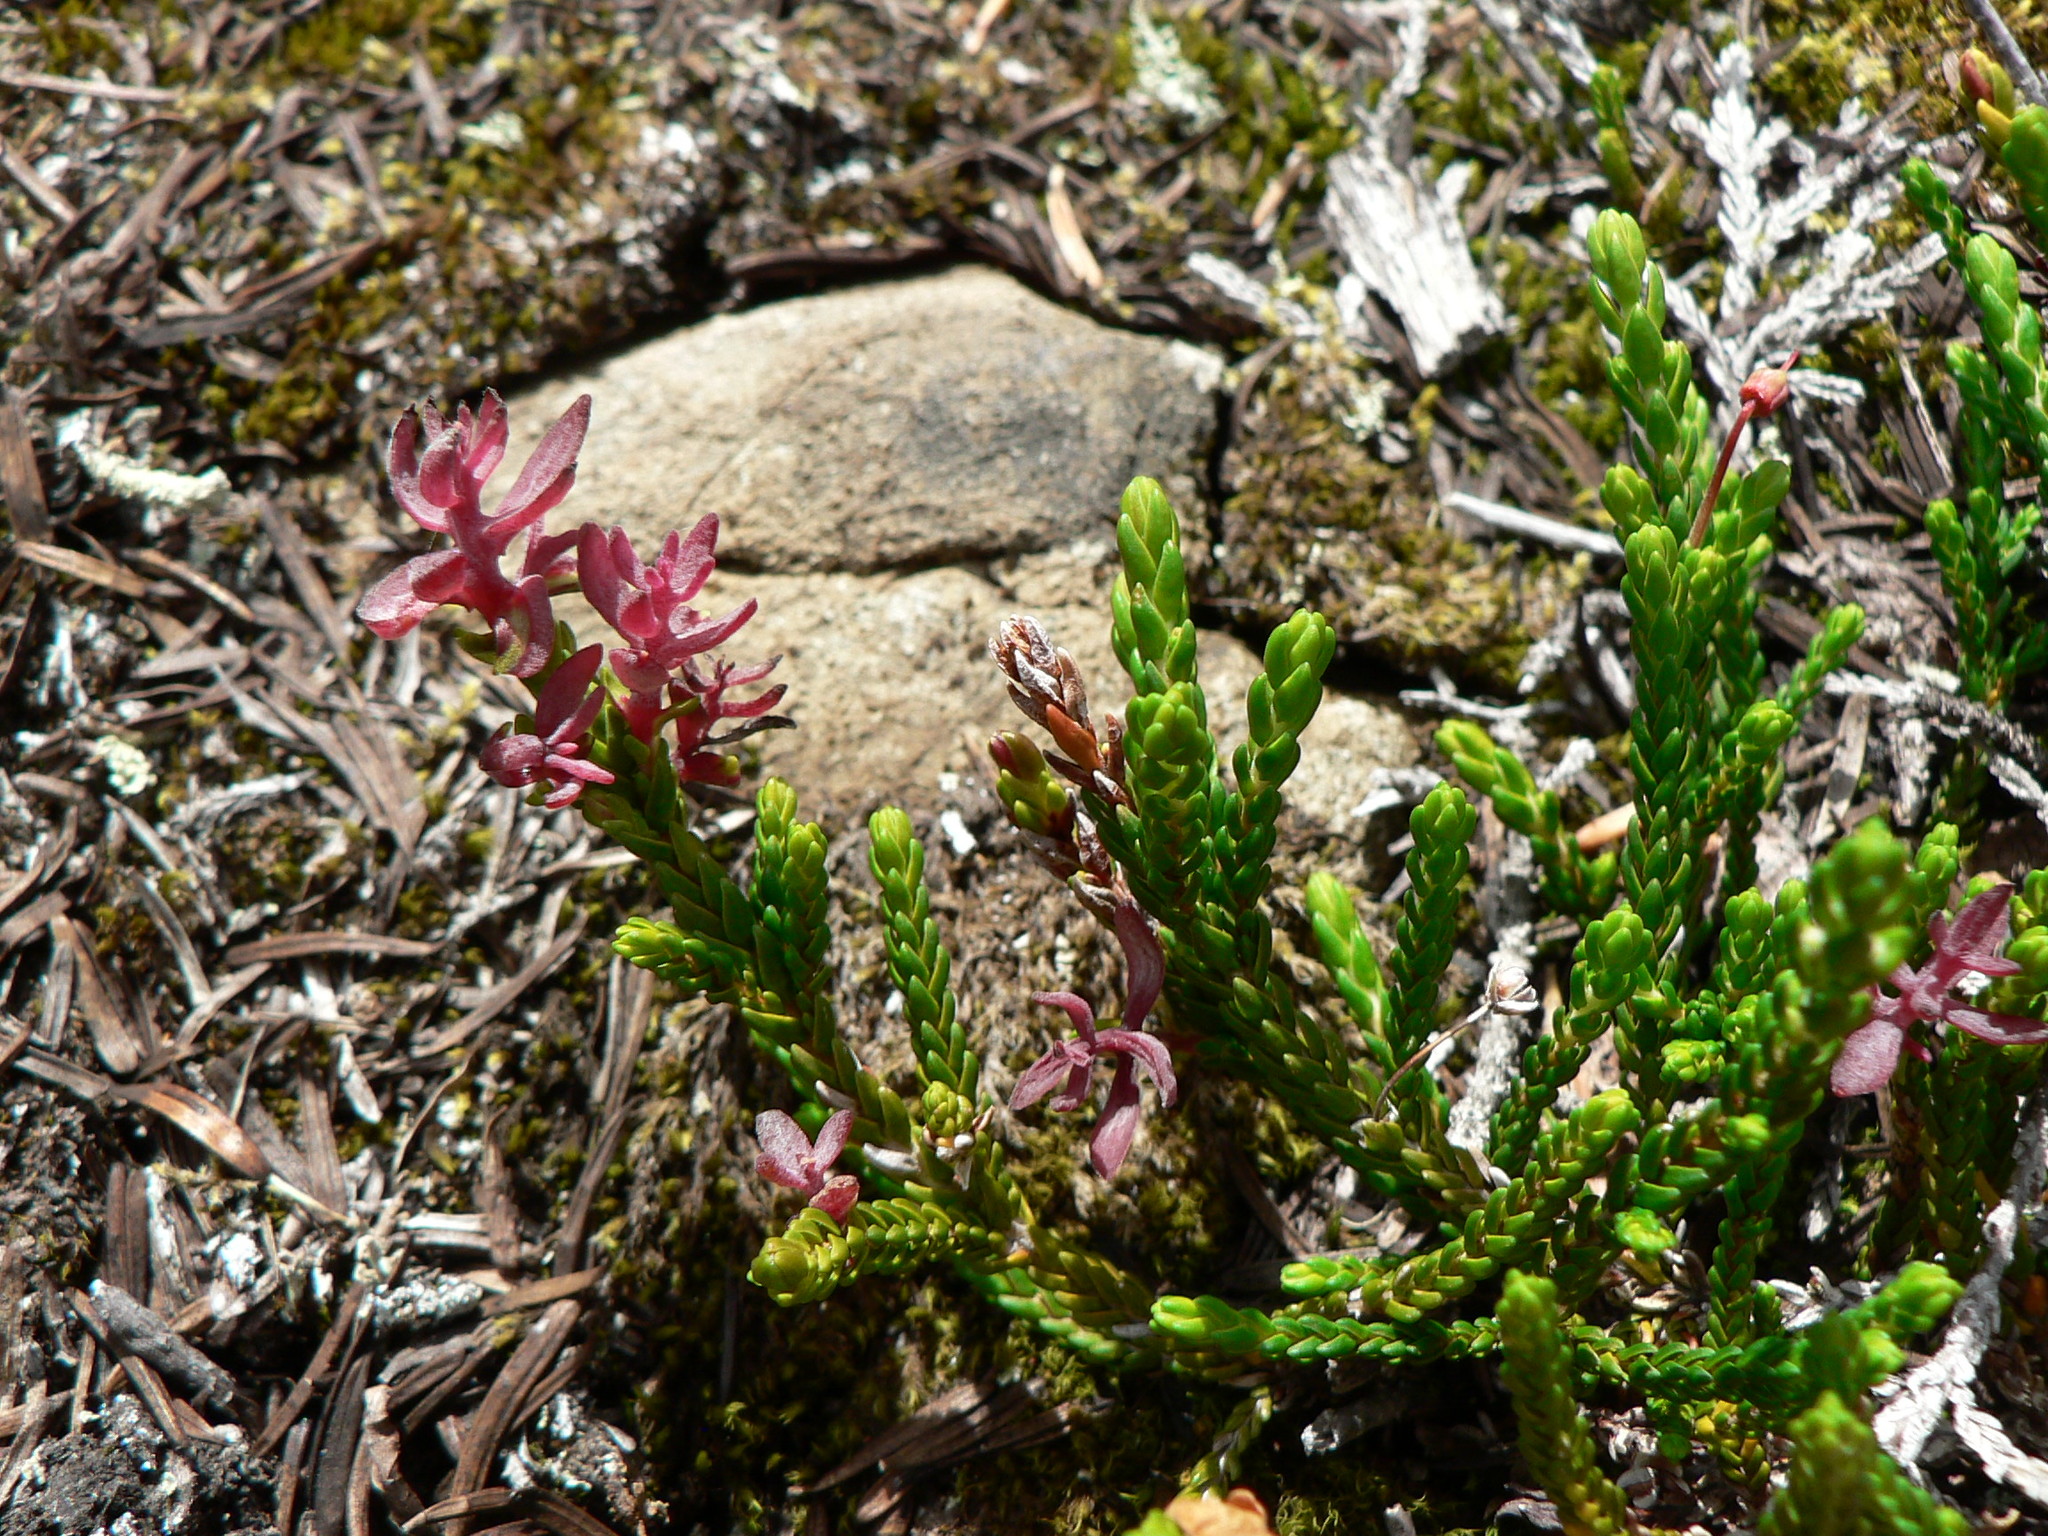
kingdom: Fungi
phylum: Basidiomycota
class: Exobasidiomycetes
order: Exobasidiales
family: Exobasidiaceae
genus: Exobasidium
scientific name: Exobasidium cassiopes
